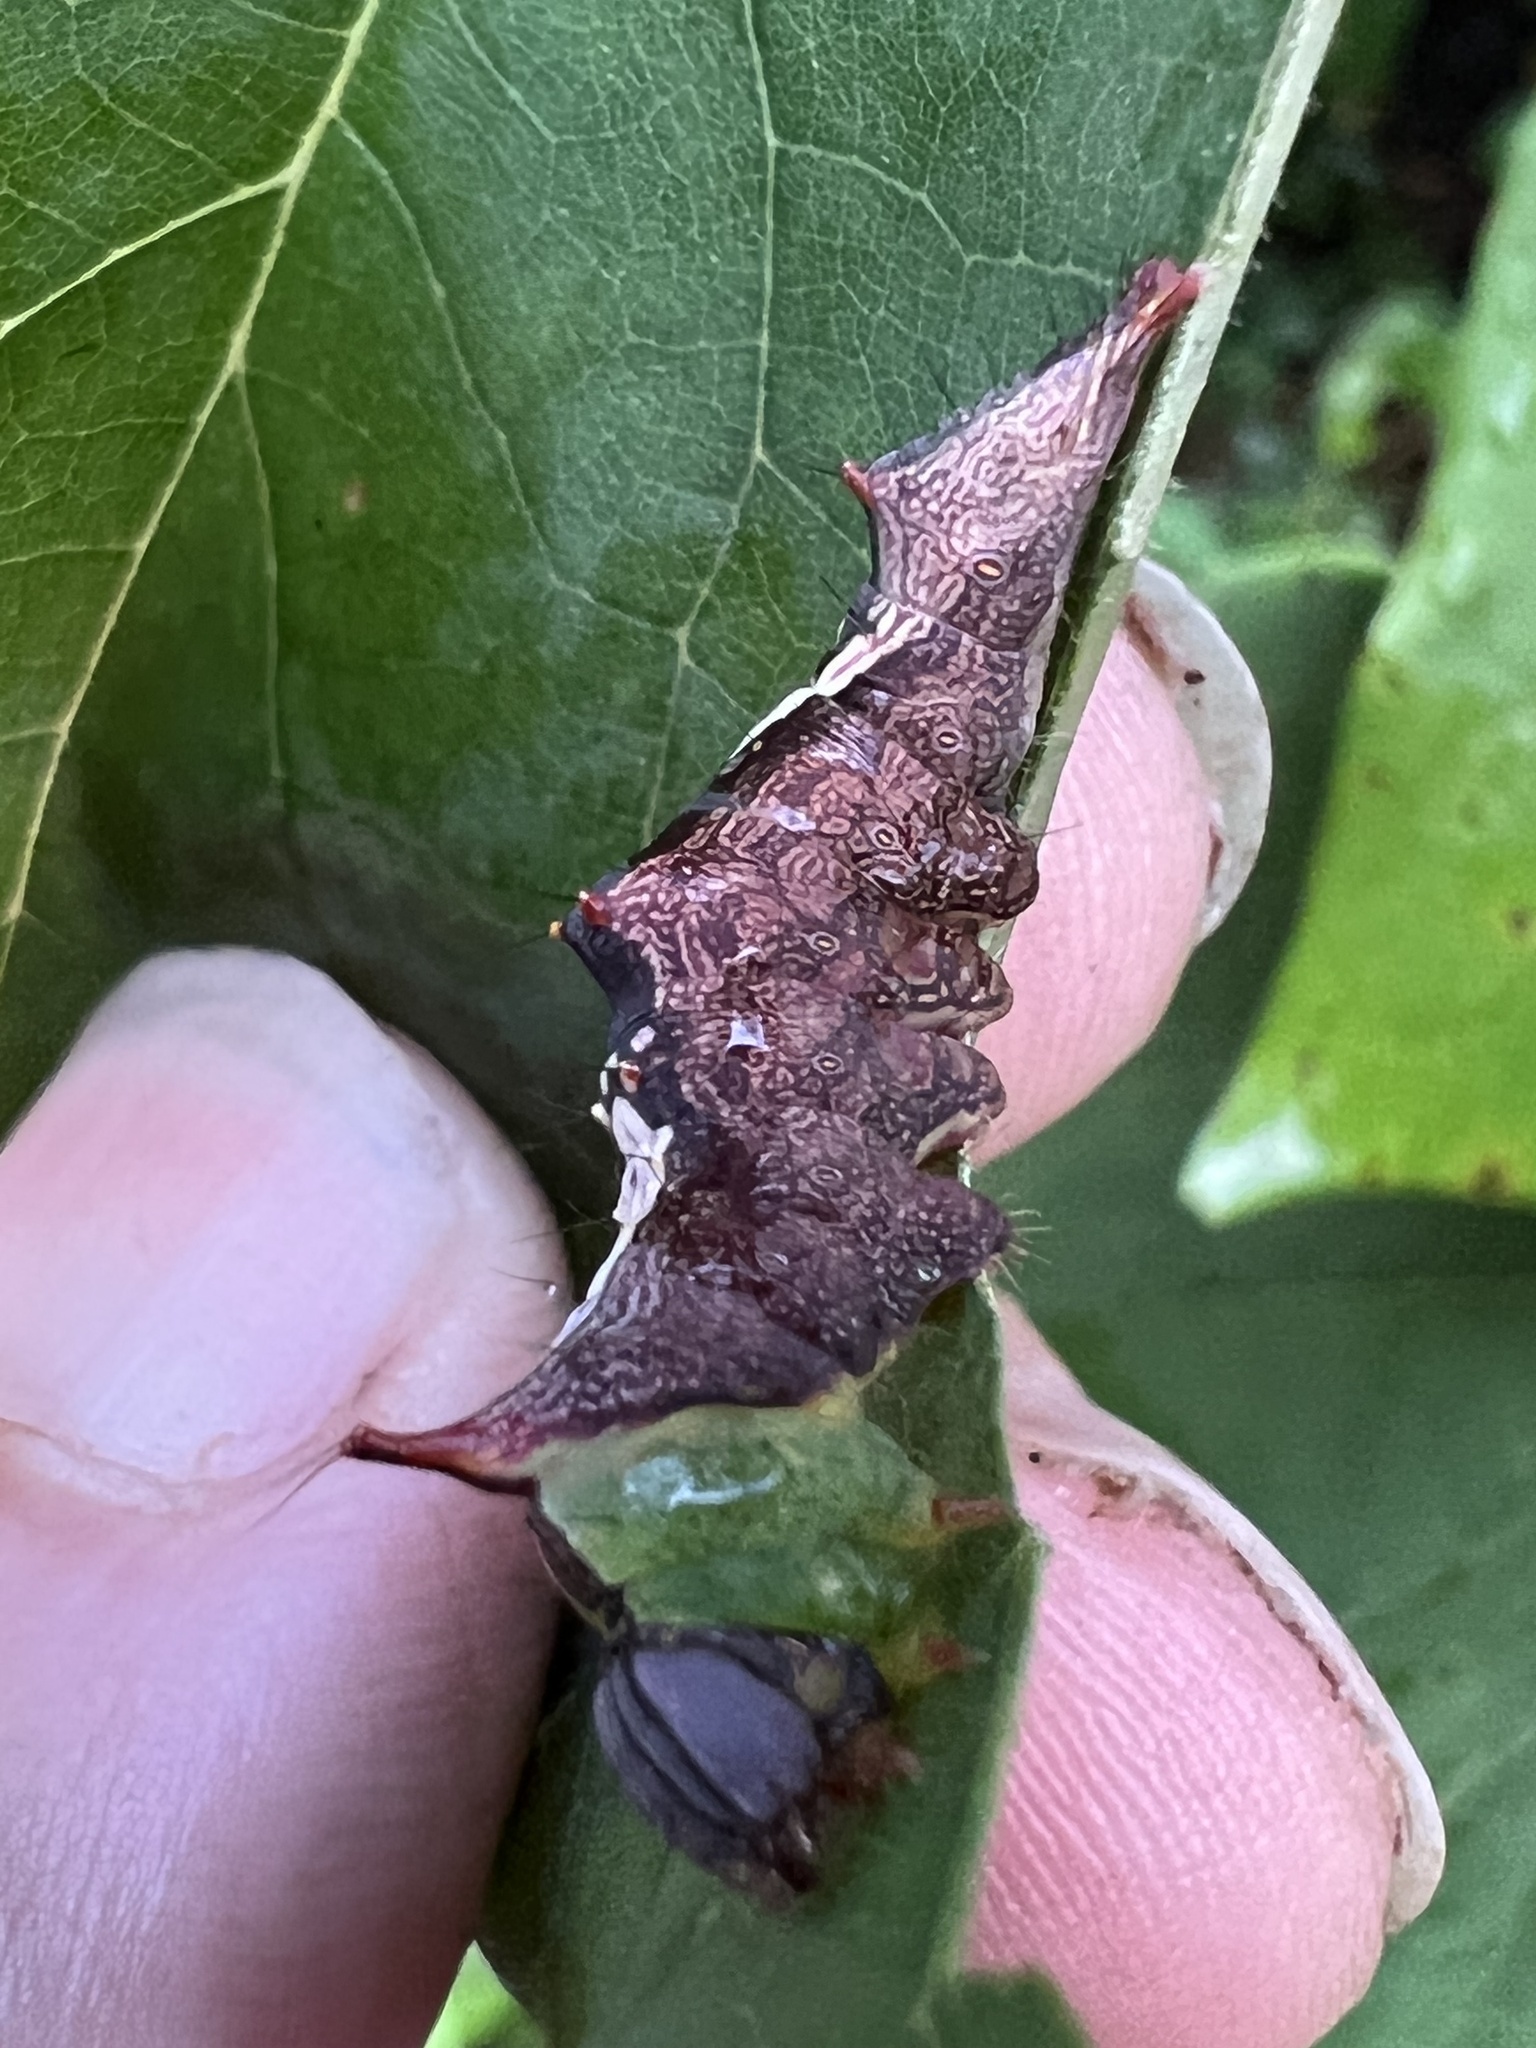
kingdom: Animalia
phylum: Arthropoda
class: Insecta
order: Lepidoptera
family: Notodontidae
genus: Schizura
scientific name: Schizura ipomaeae
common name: Morning-glory prominent
